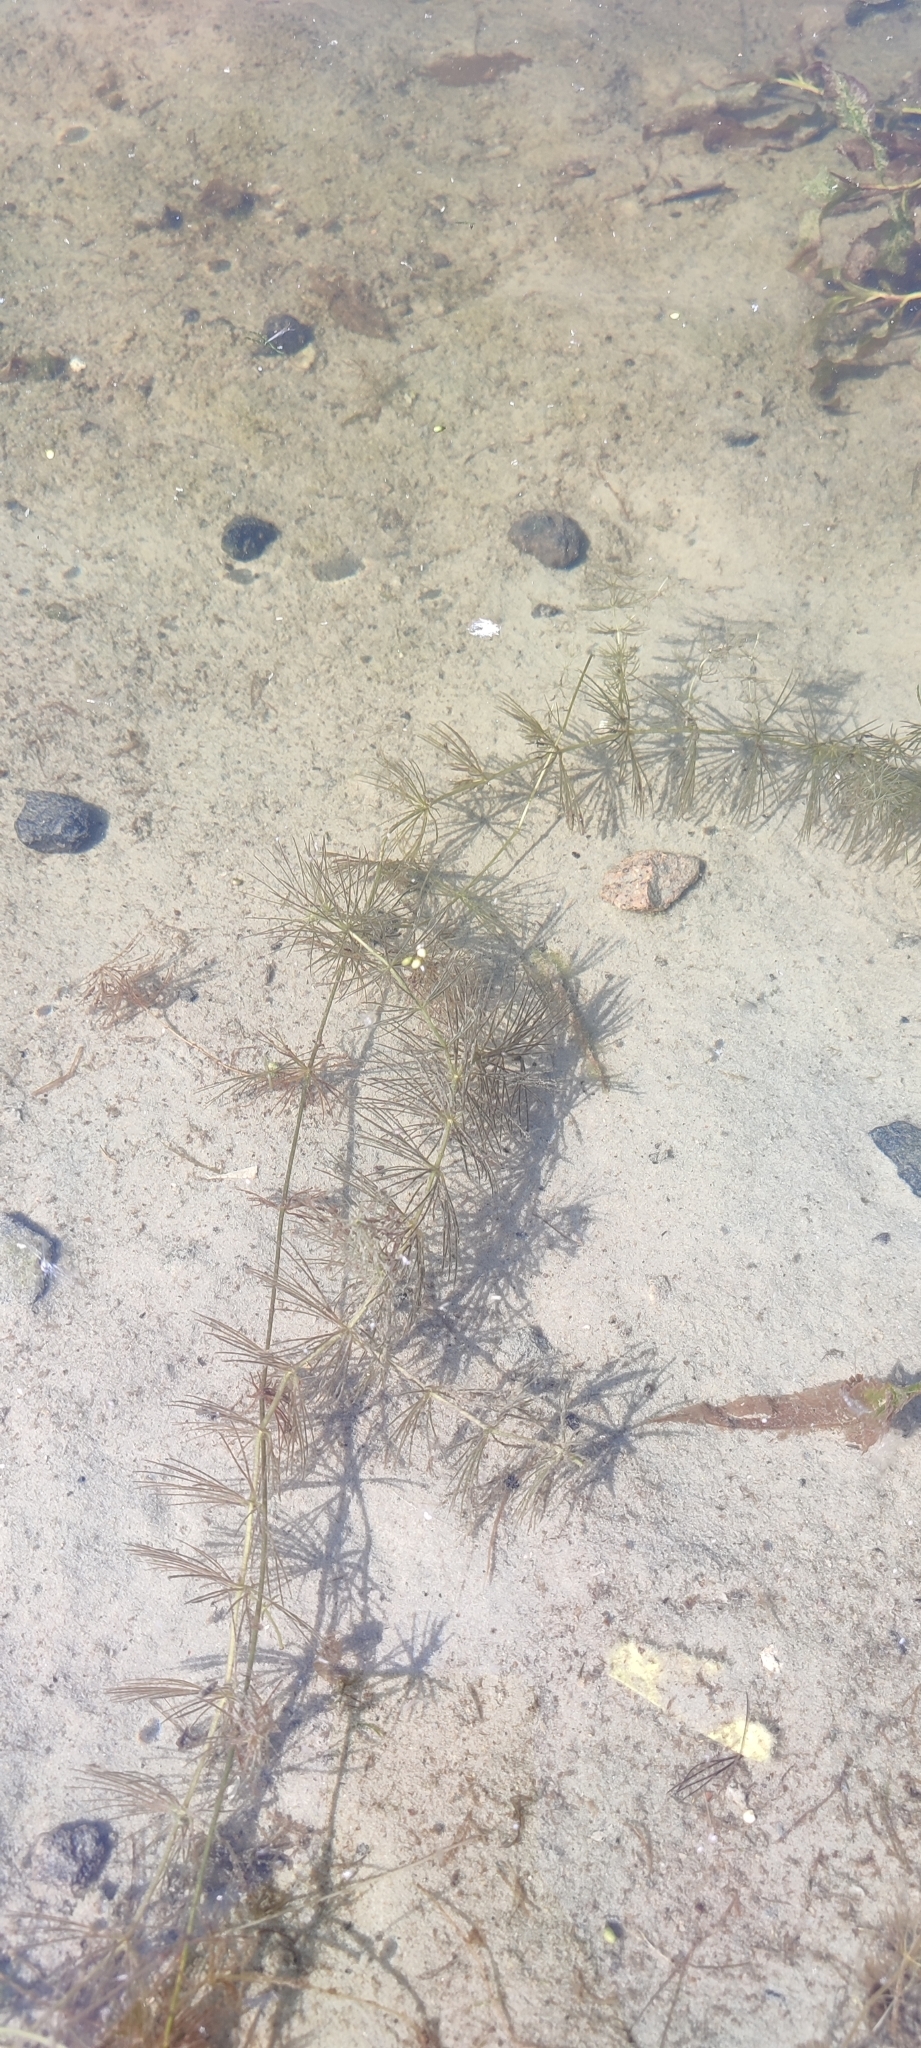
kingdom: Plantae
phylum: Tracheophyta
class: Magnoliopsida
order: Ceratophyllales
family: Ceratophyllaceae
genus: Ceratophyllum
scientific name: Ceratophyllum demersum
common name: Rigid hornwort
